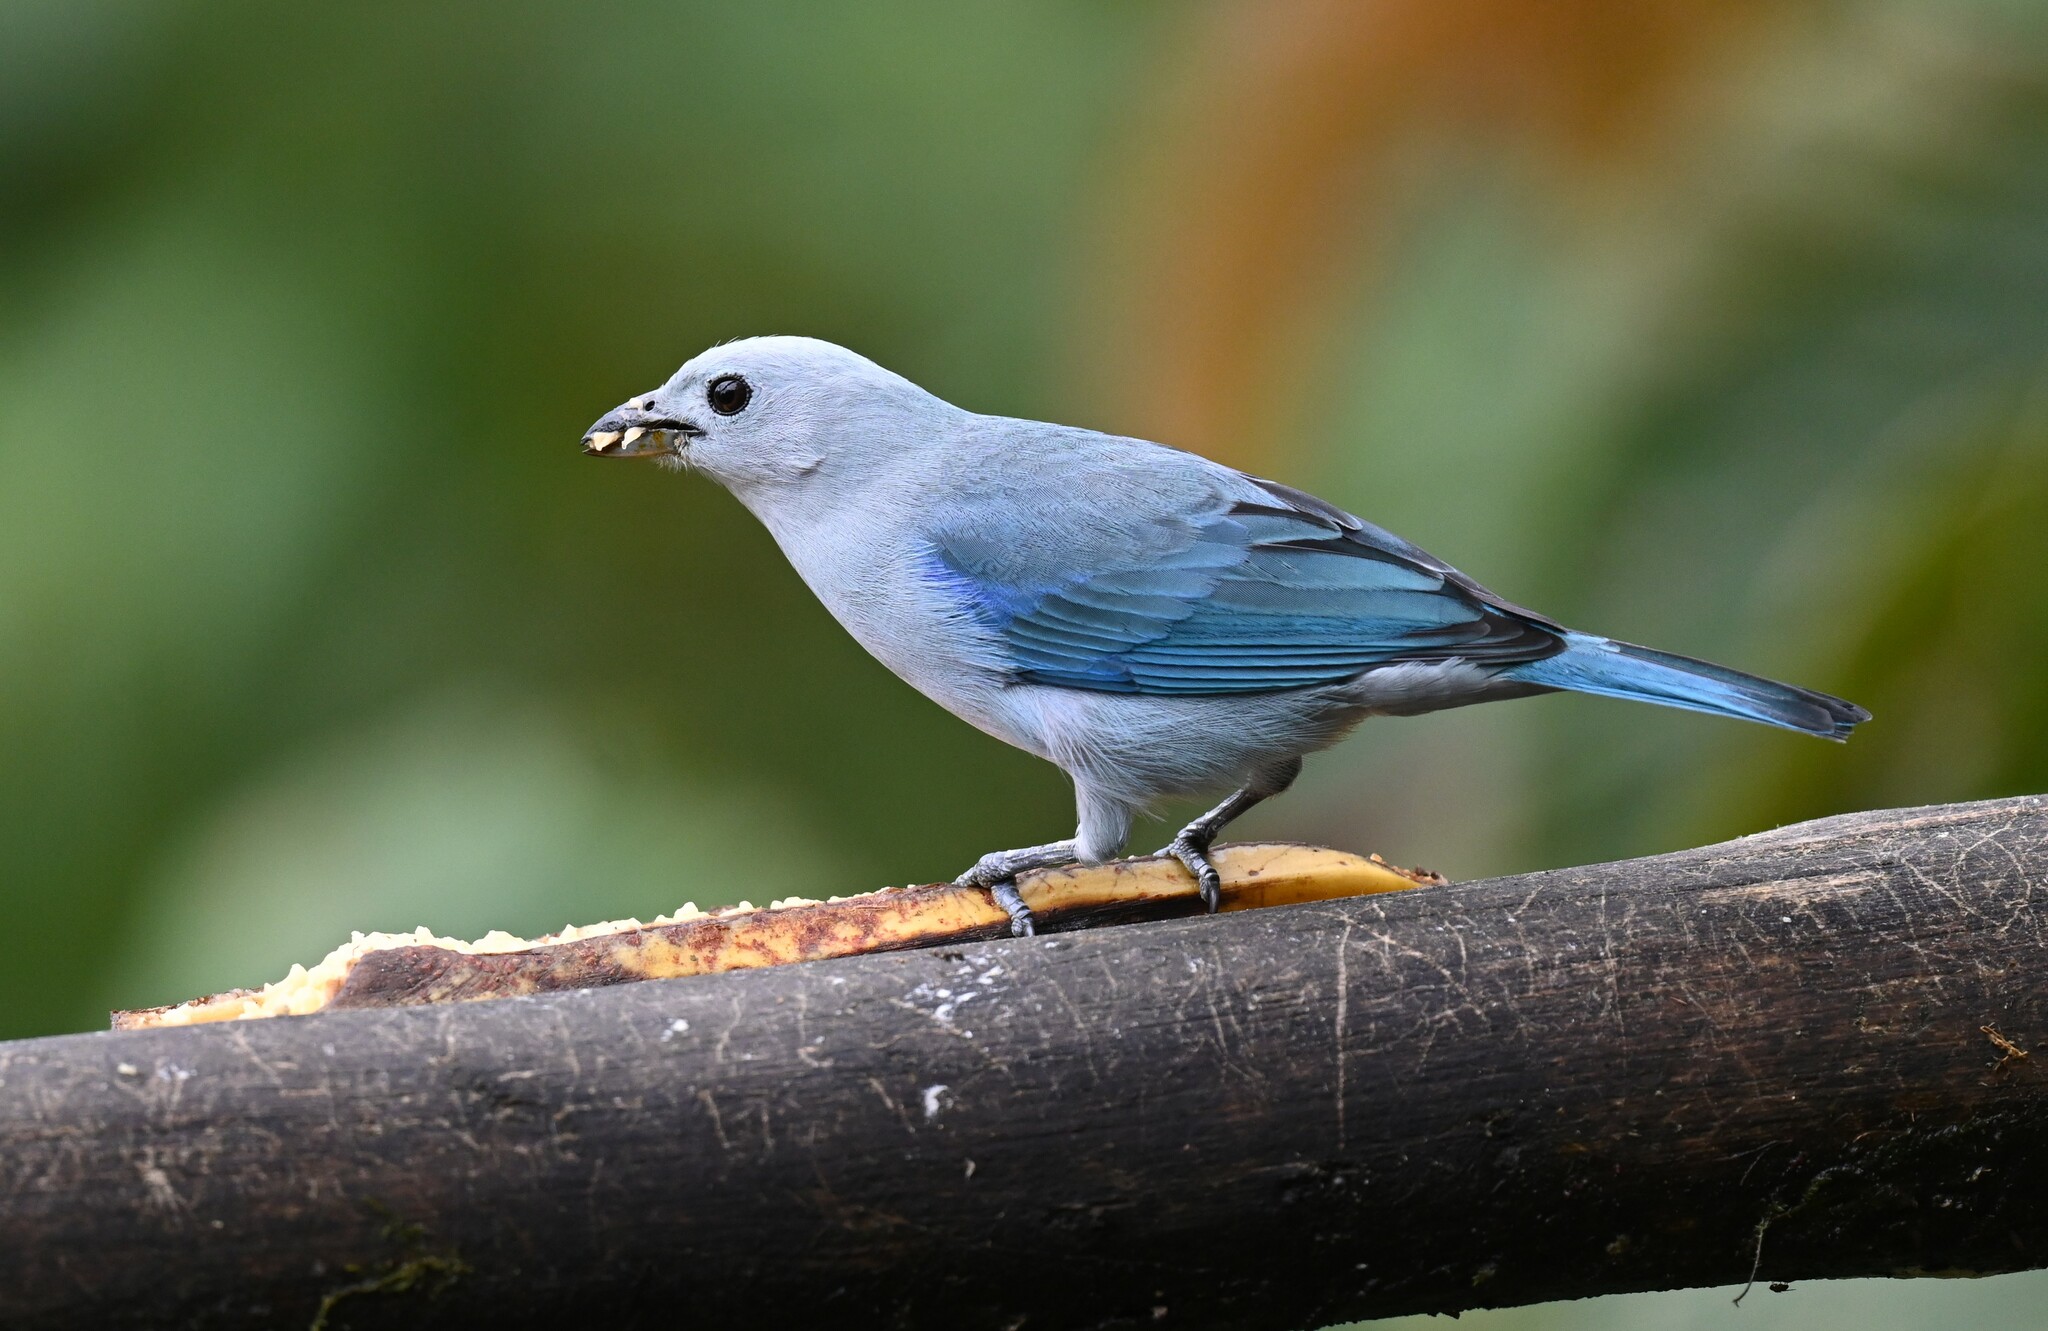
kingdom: Animalia
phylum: Chordata
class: Aves
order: Passeriformes
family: Thraupidae
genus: Thraupis
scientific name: Thraupis episcopus
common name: Blue-grey tanager
